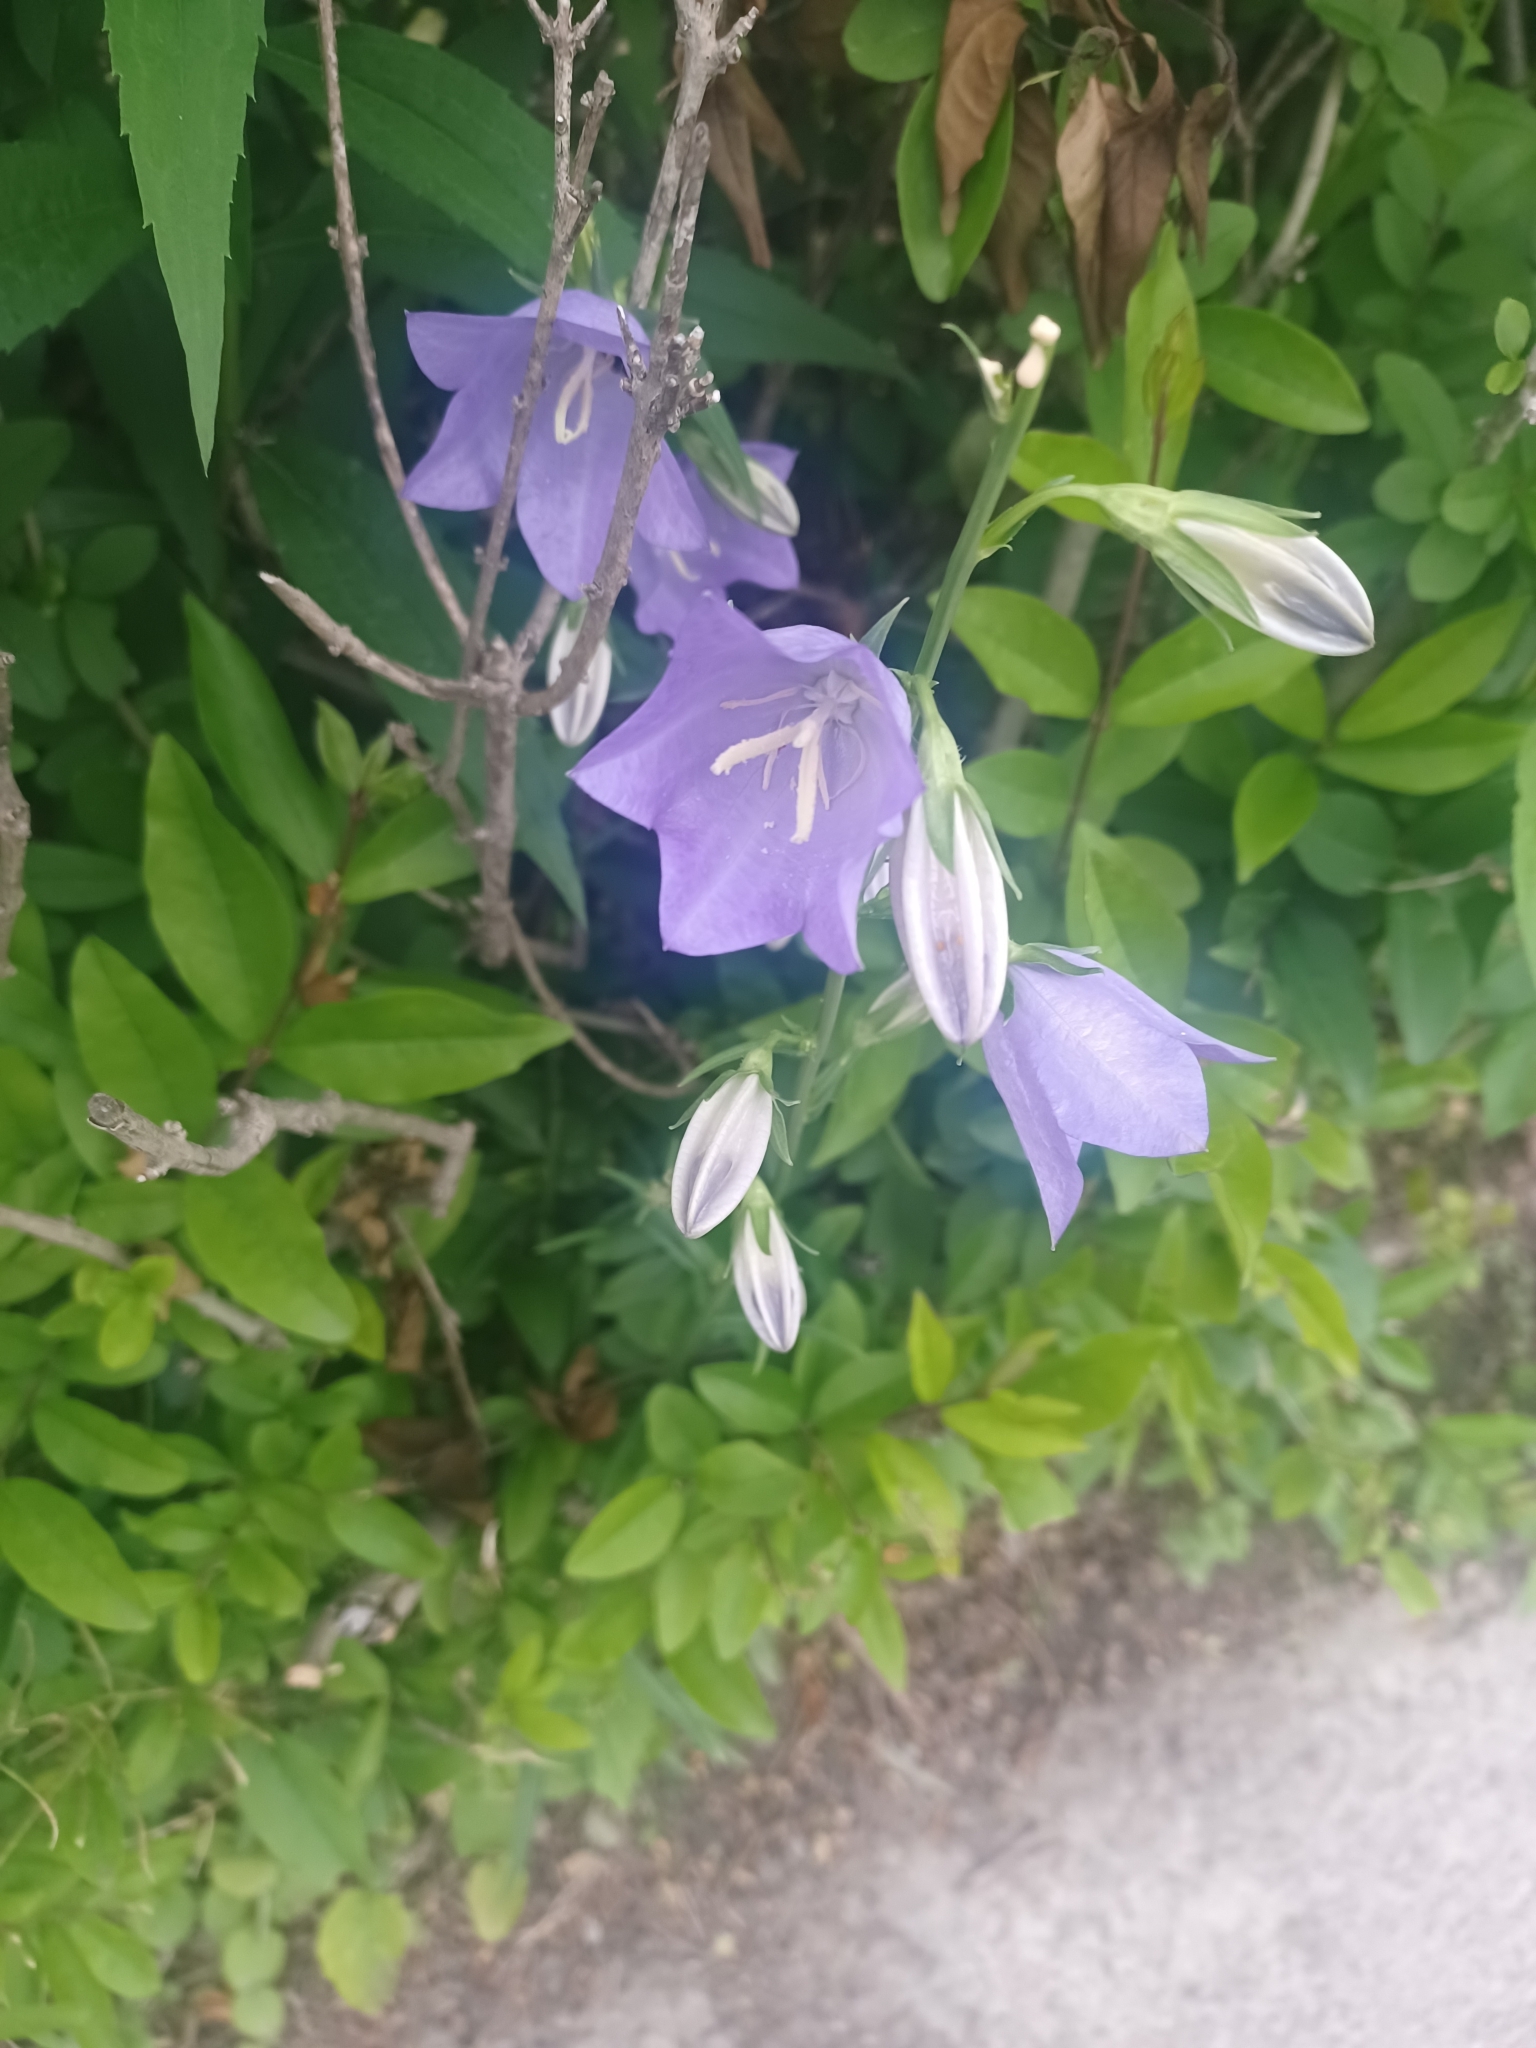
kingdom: Plantae
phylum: Tracheophyta
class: Magnoliopsida
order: Asterales
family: Campanulaceae
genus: Campanula
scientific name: Campanula persicifolia
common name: Peach-leaved bellflower
